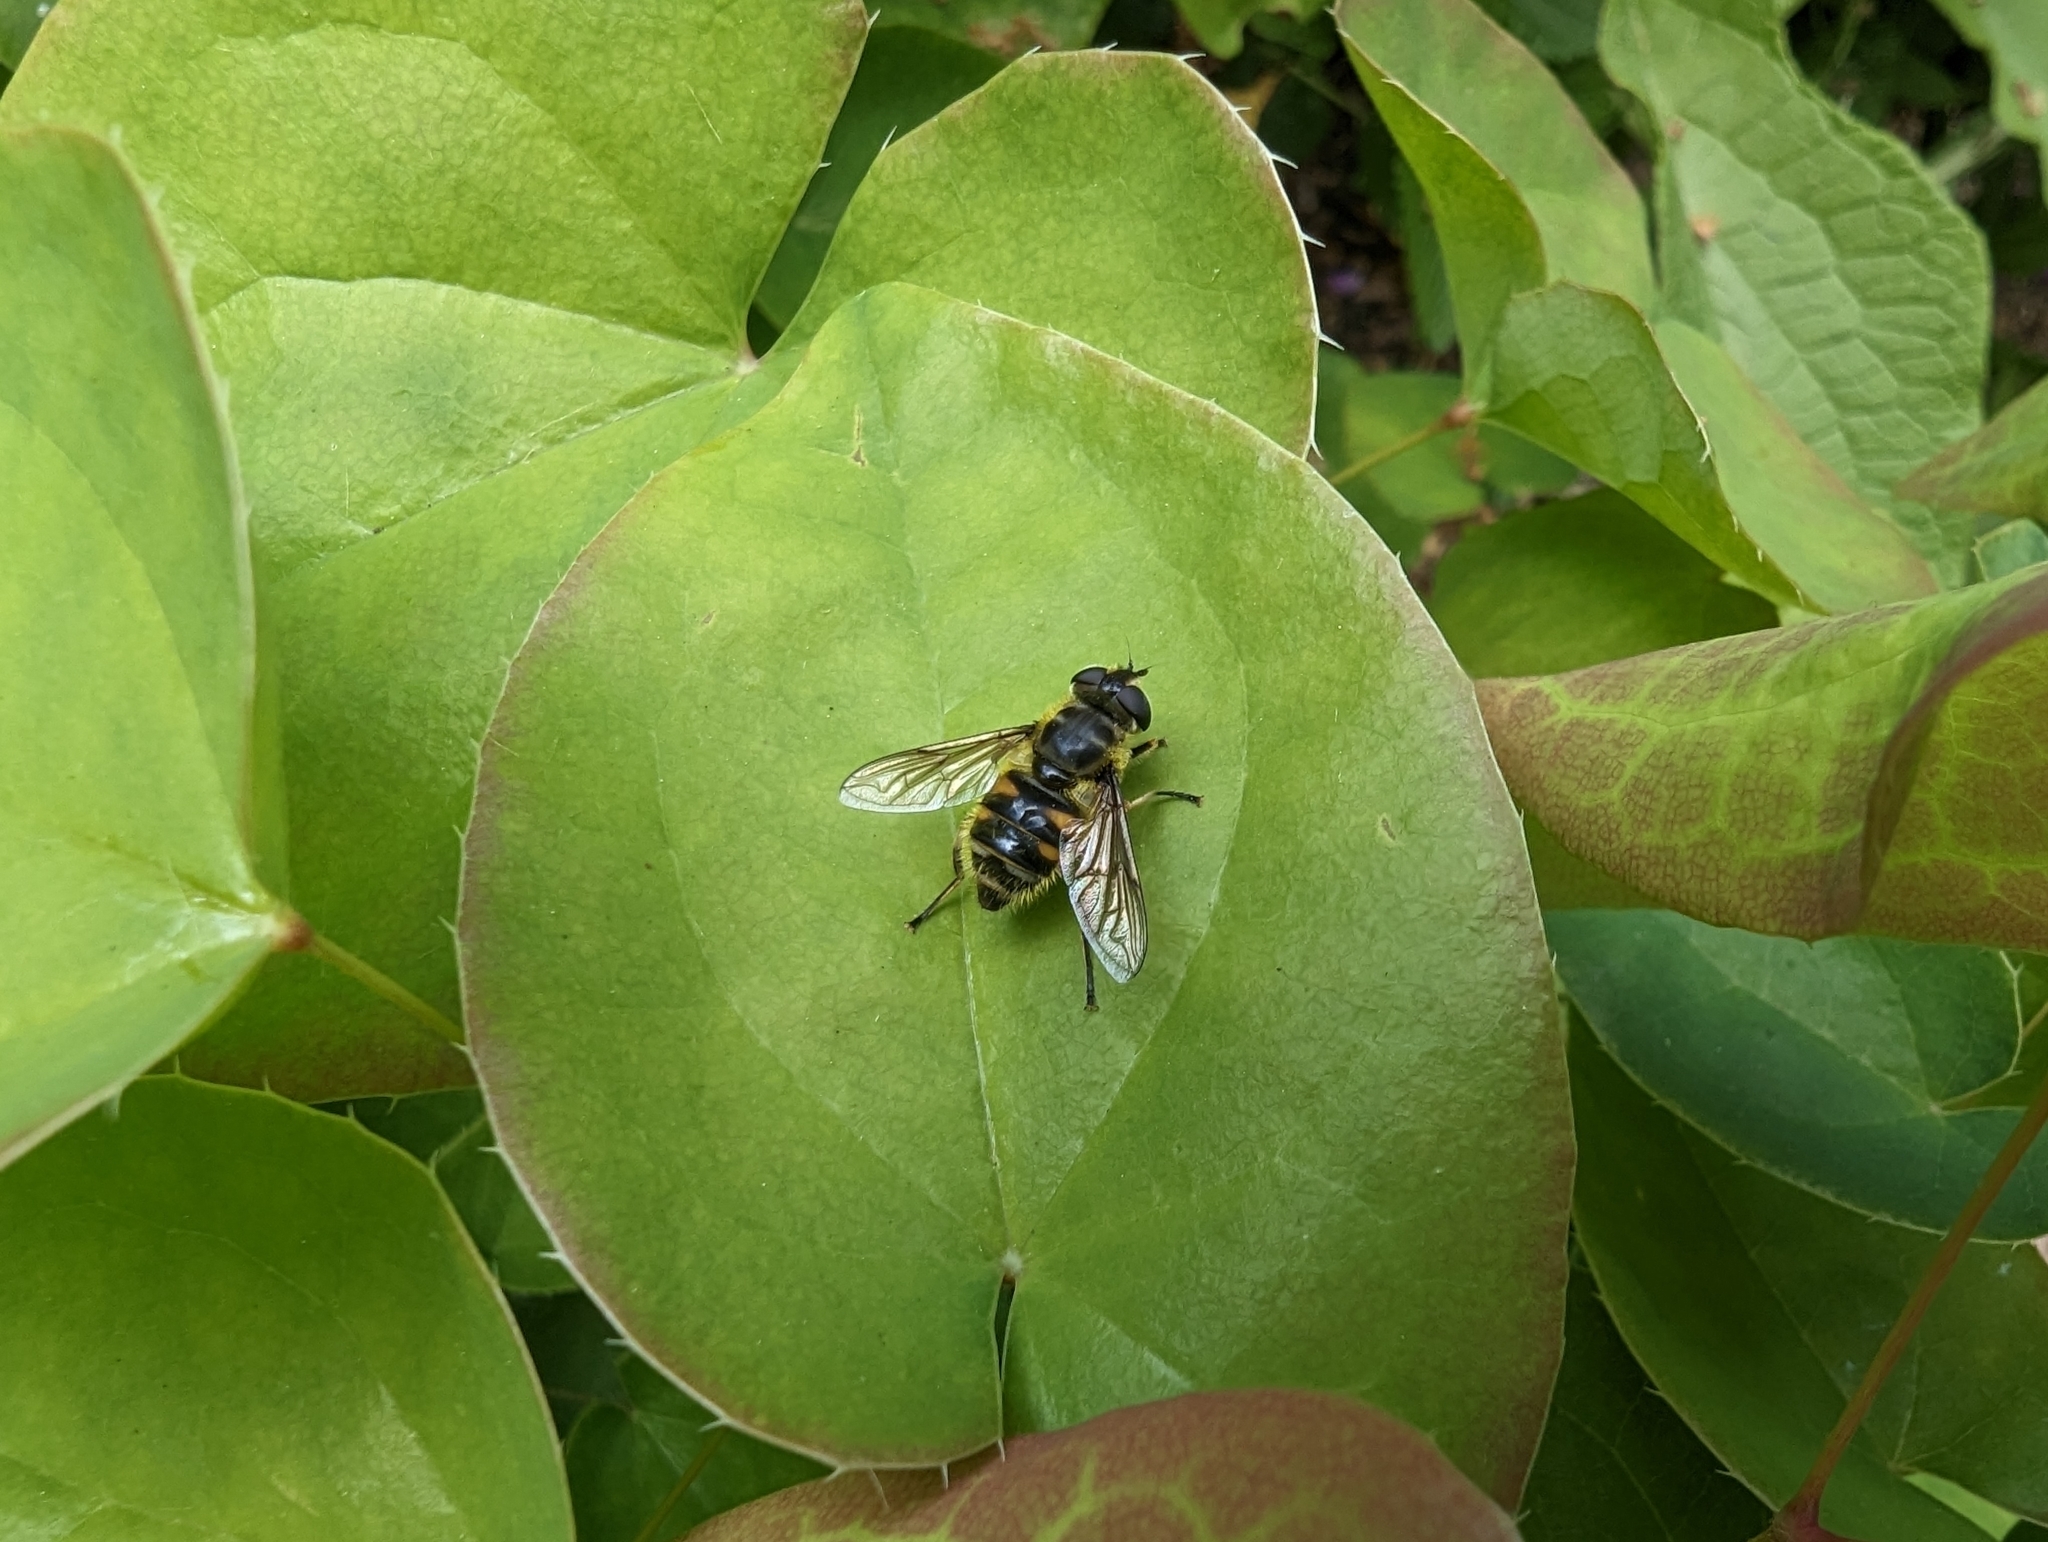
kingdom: Animalia
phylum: Arthropoda
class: Insecta
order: Diptera
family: Syrphidae
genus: Myathropa
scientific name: Myathropa florea
